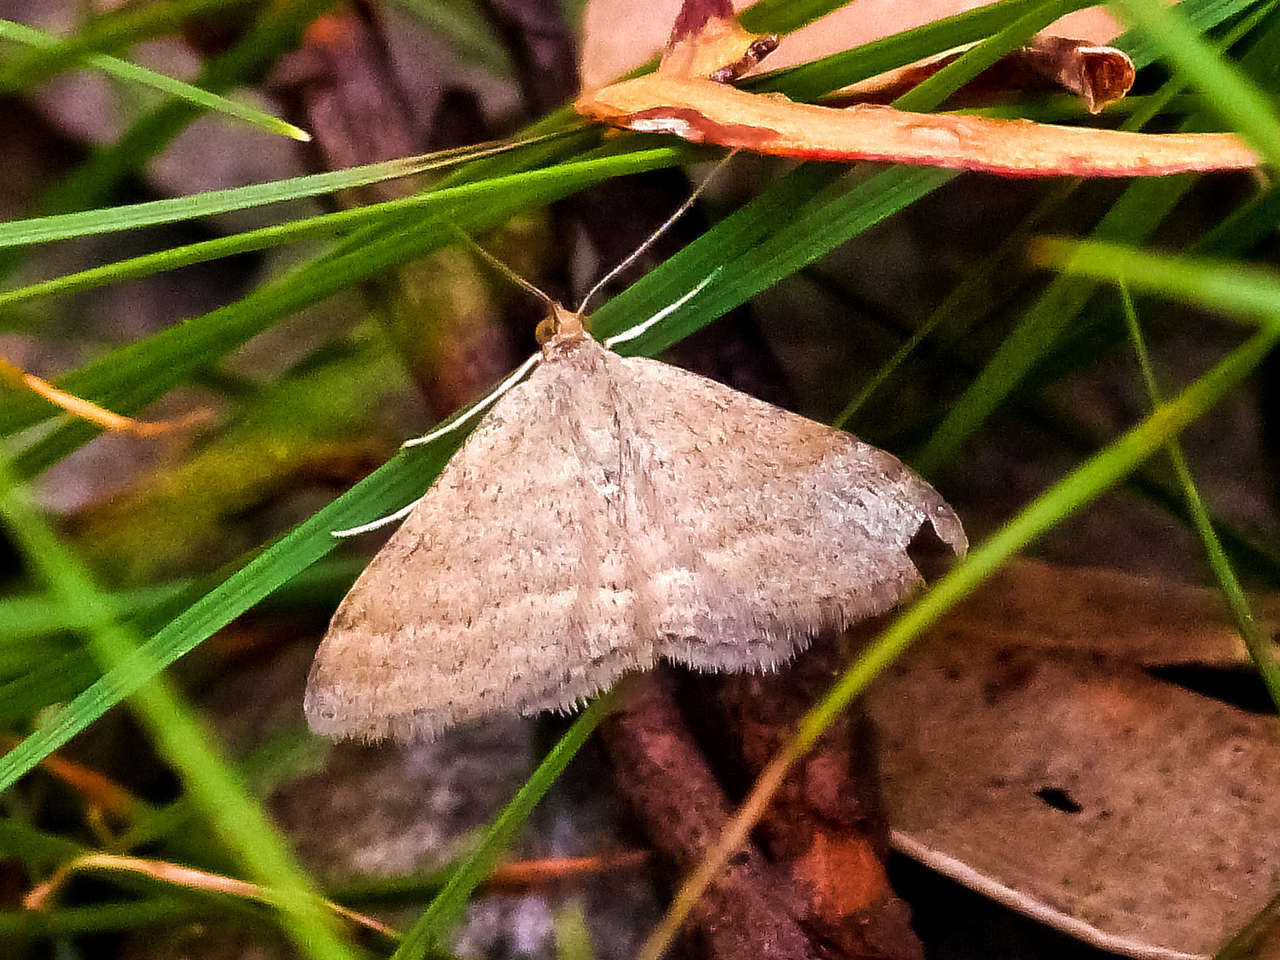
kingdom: Animalia
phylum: Arthropoda
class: Insecta
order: Lepidoptera
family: Geometridae
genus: Scopula
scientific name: Scopula rubraria
